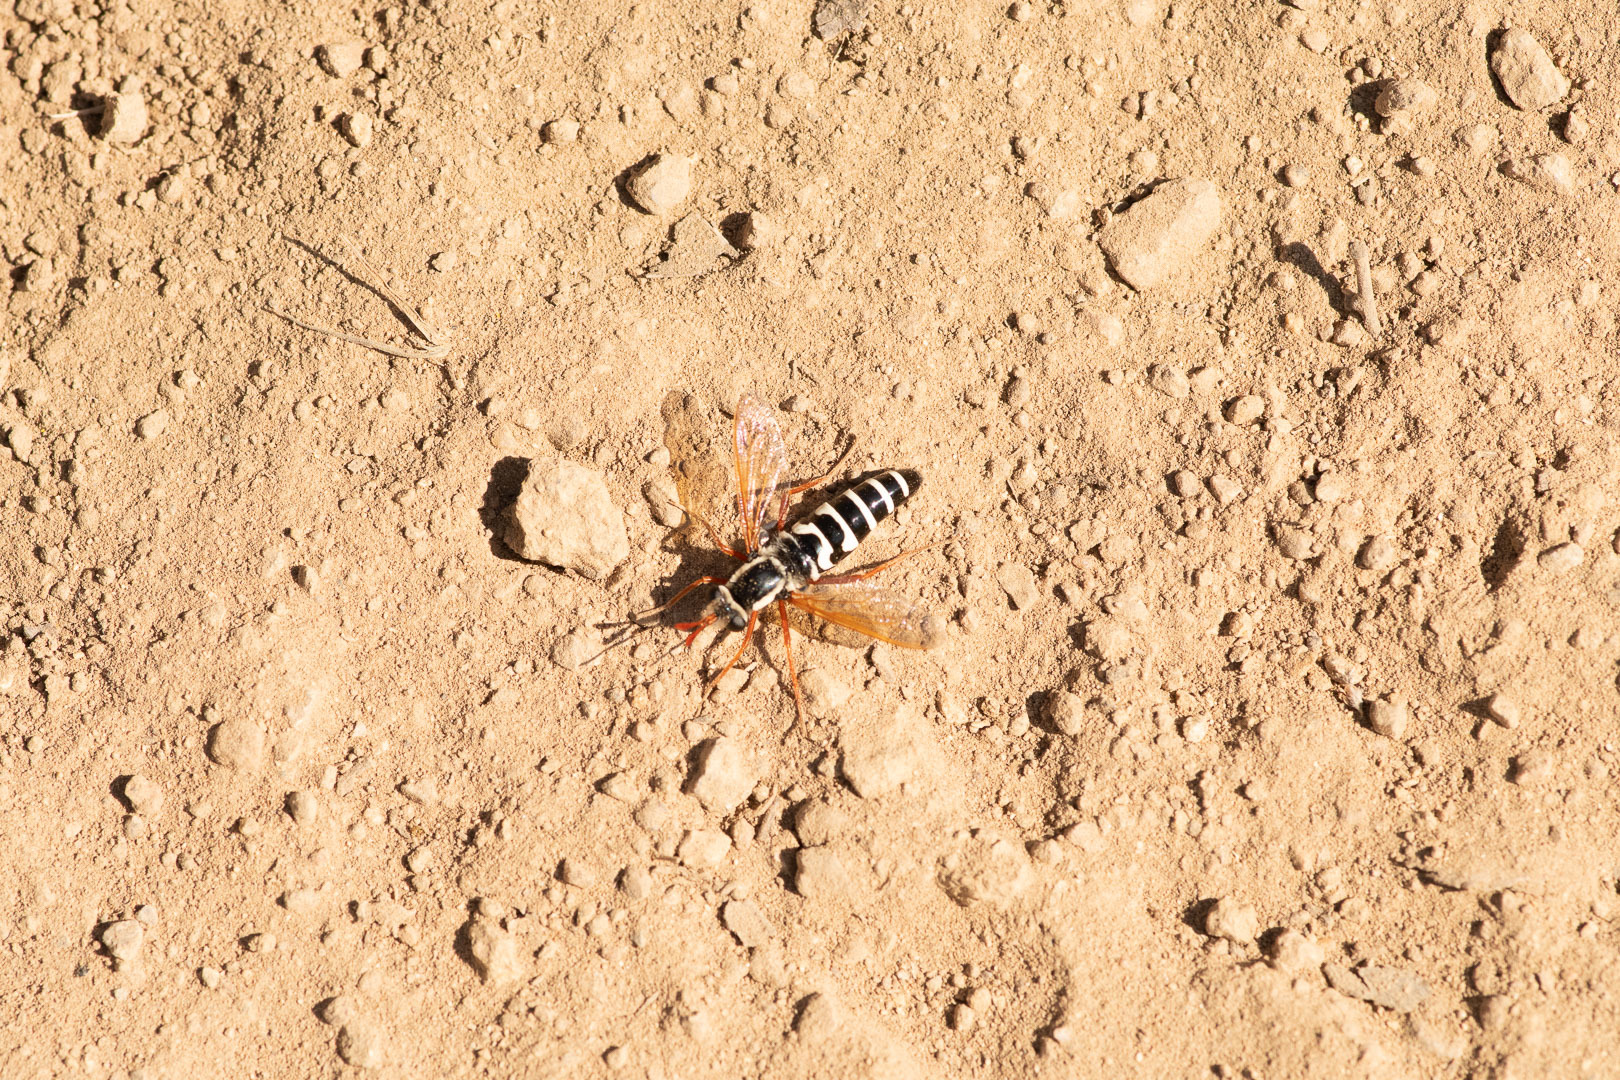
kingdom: Animalia
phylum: Arthropoda
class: Insecta
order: Diptera
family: Mydidae
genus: Mitrodetus
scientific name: Mitrodetus dentitarsis
